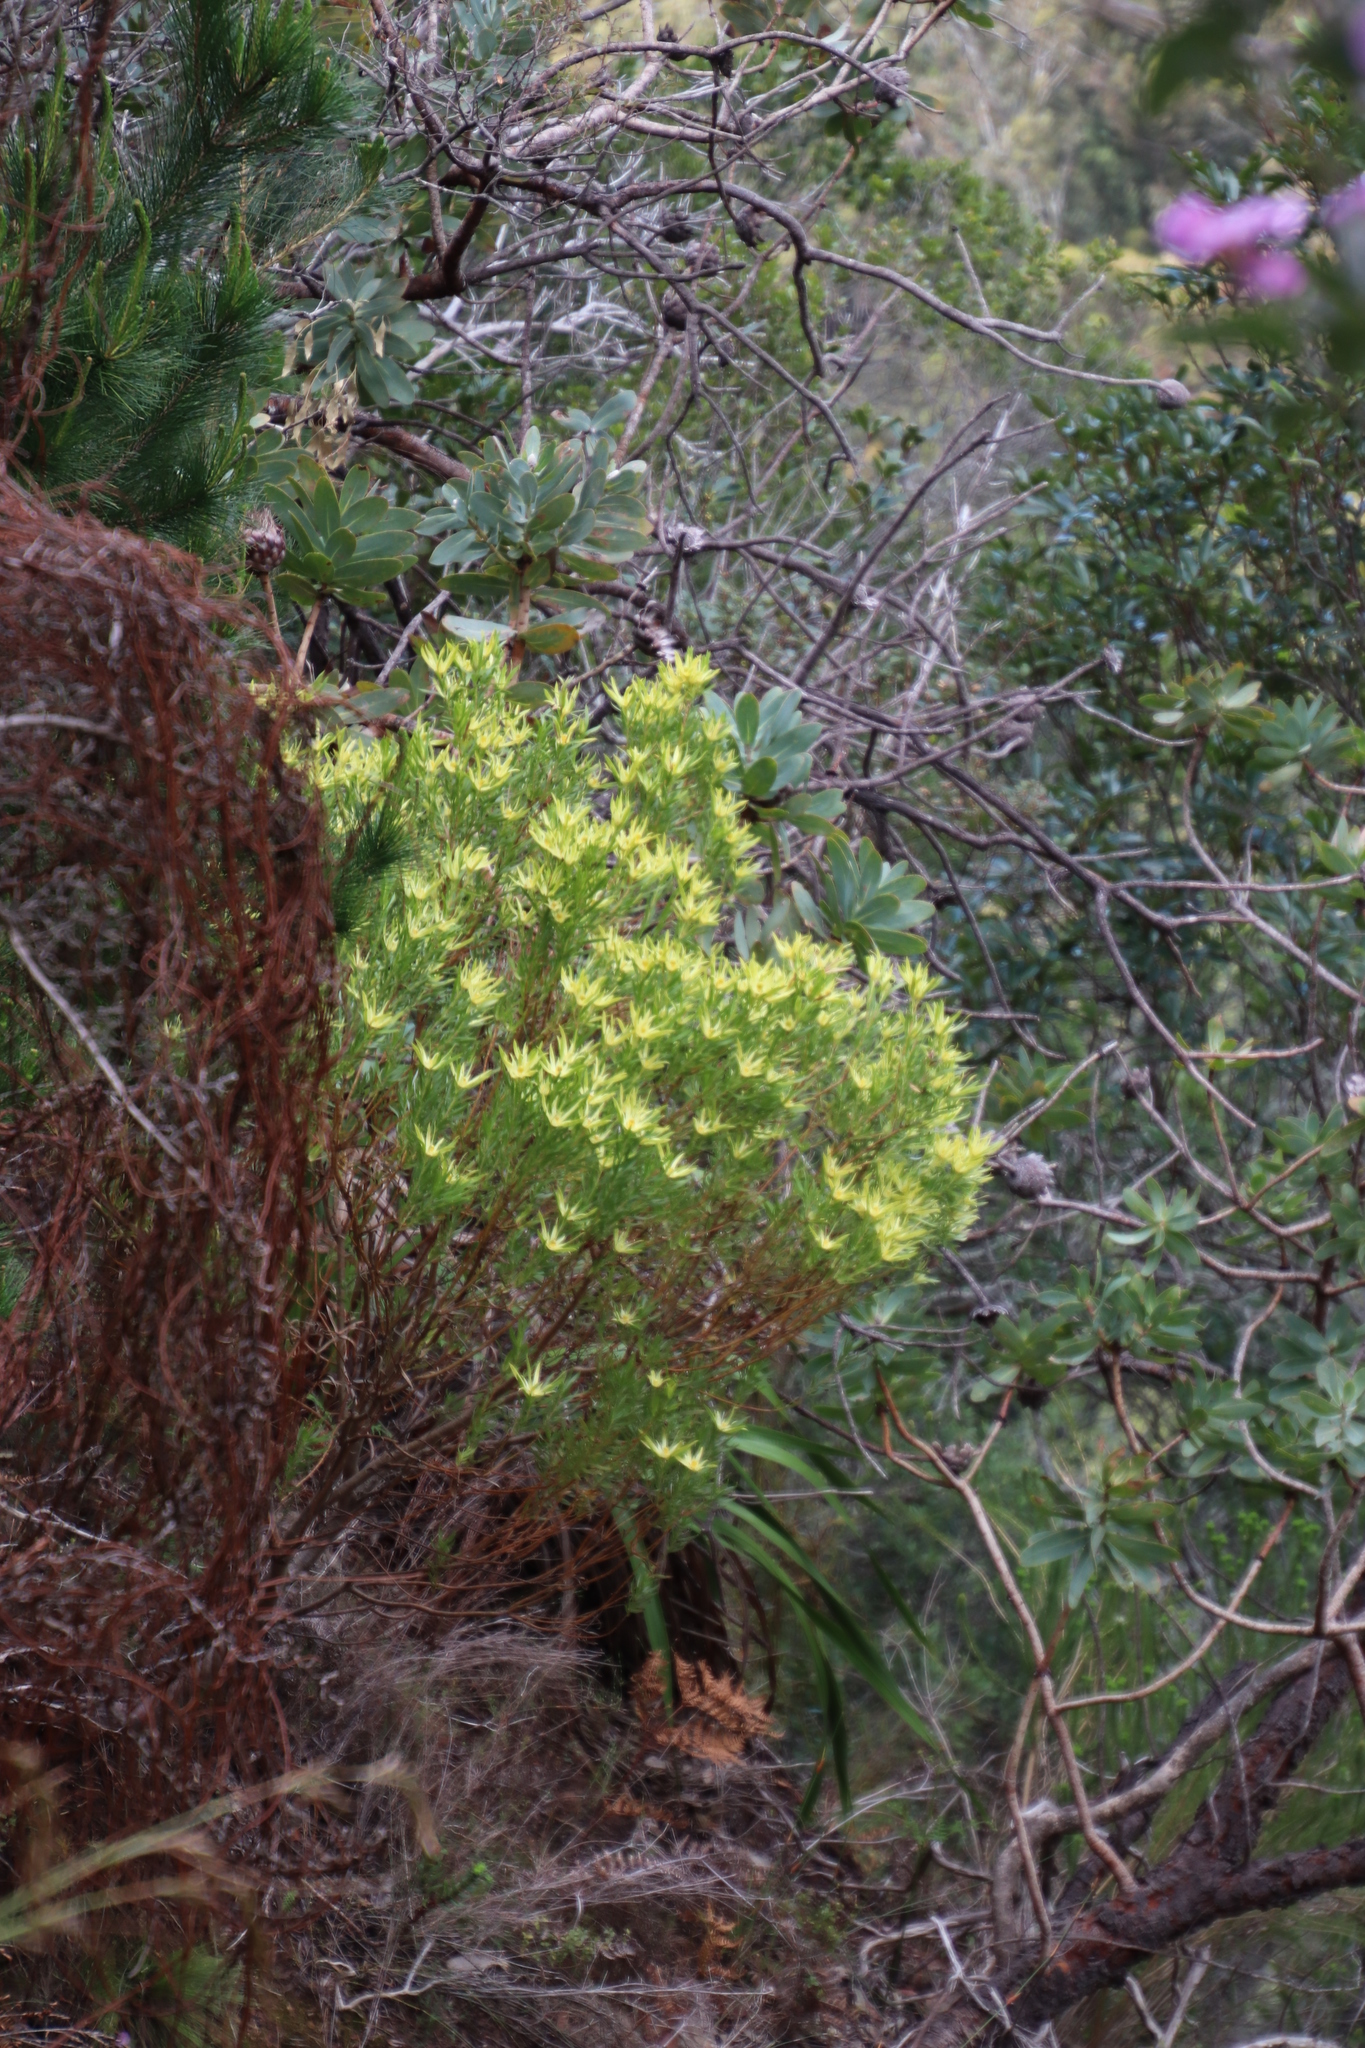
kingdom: Plantae
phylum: Tracheophyta
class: Magnoliopsida
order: Proteales
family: Proteaceae
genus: Leucadendron
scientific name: Leucadendron xanthoconus
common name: Sickle-leaf conebush
